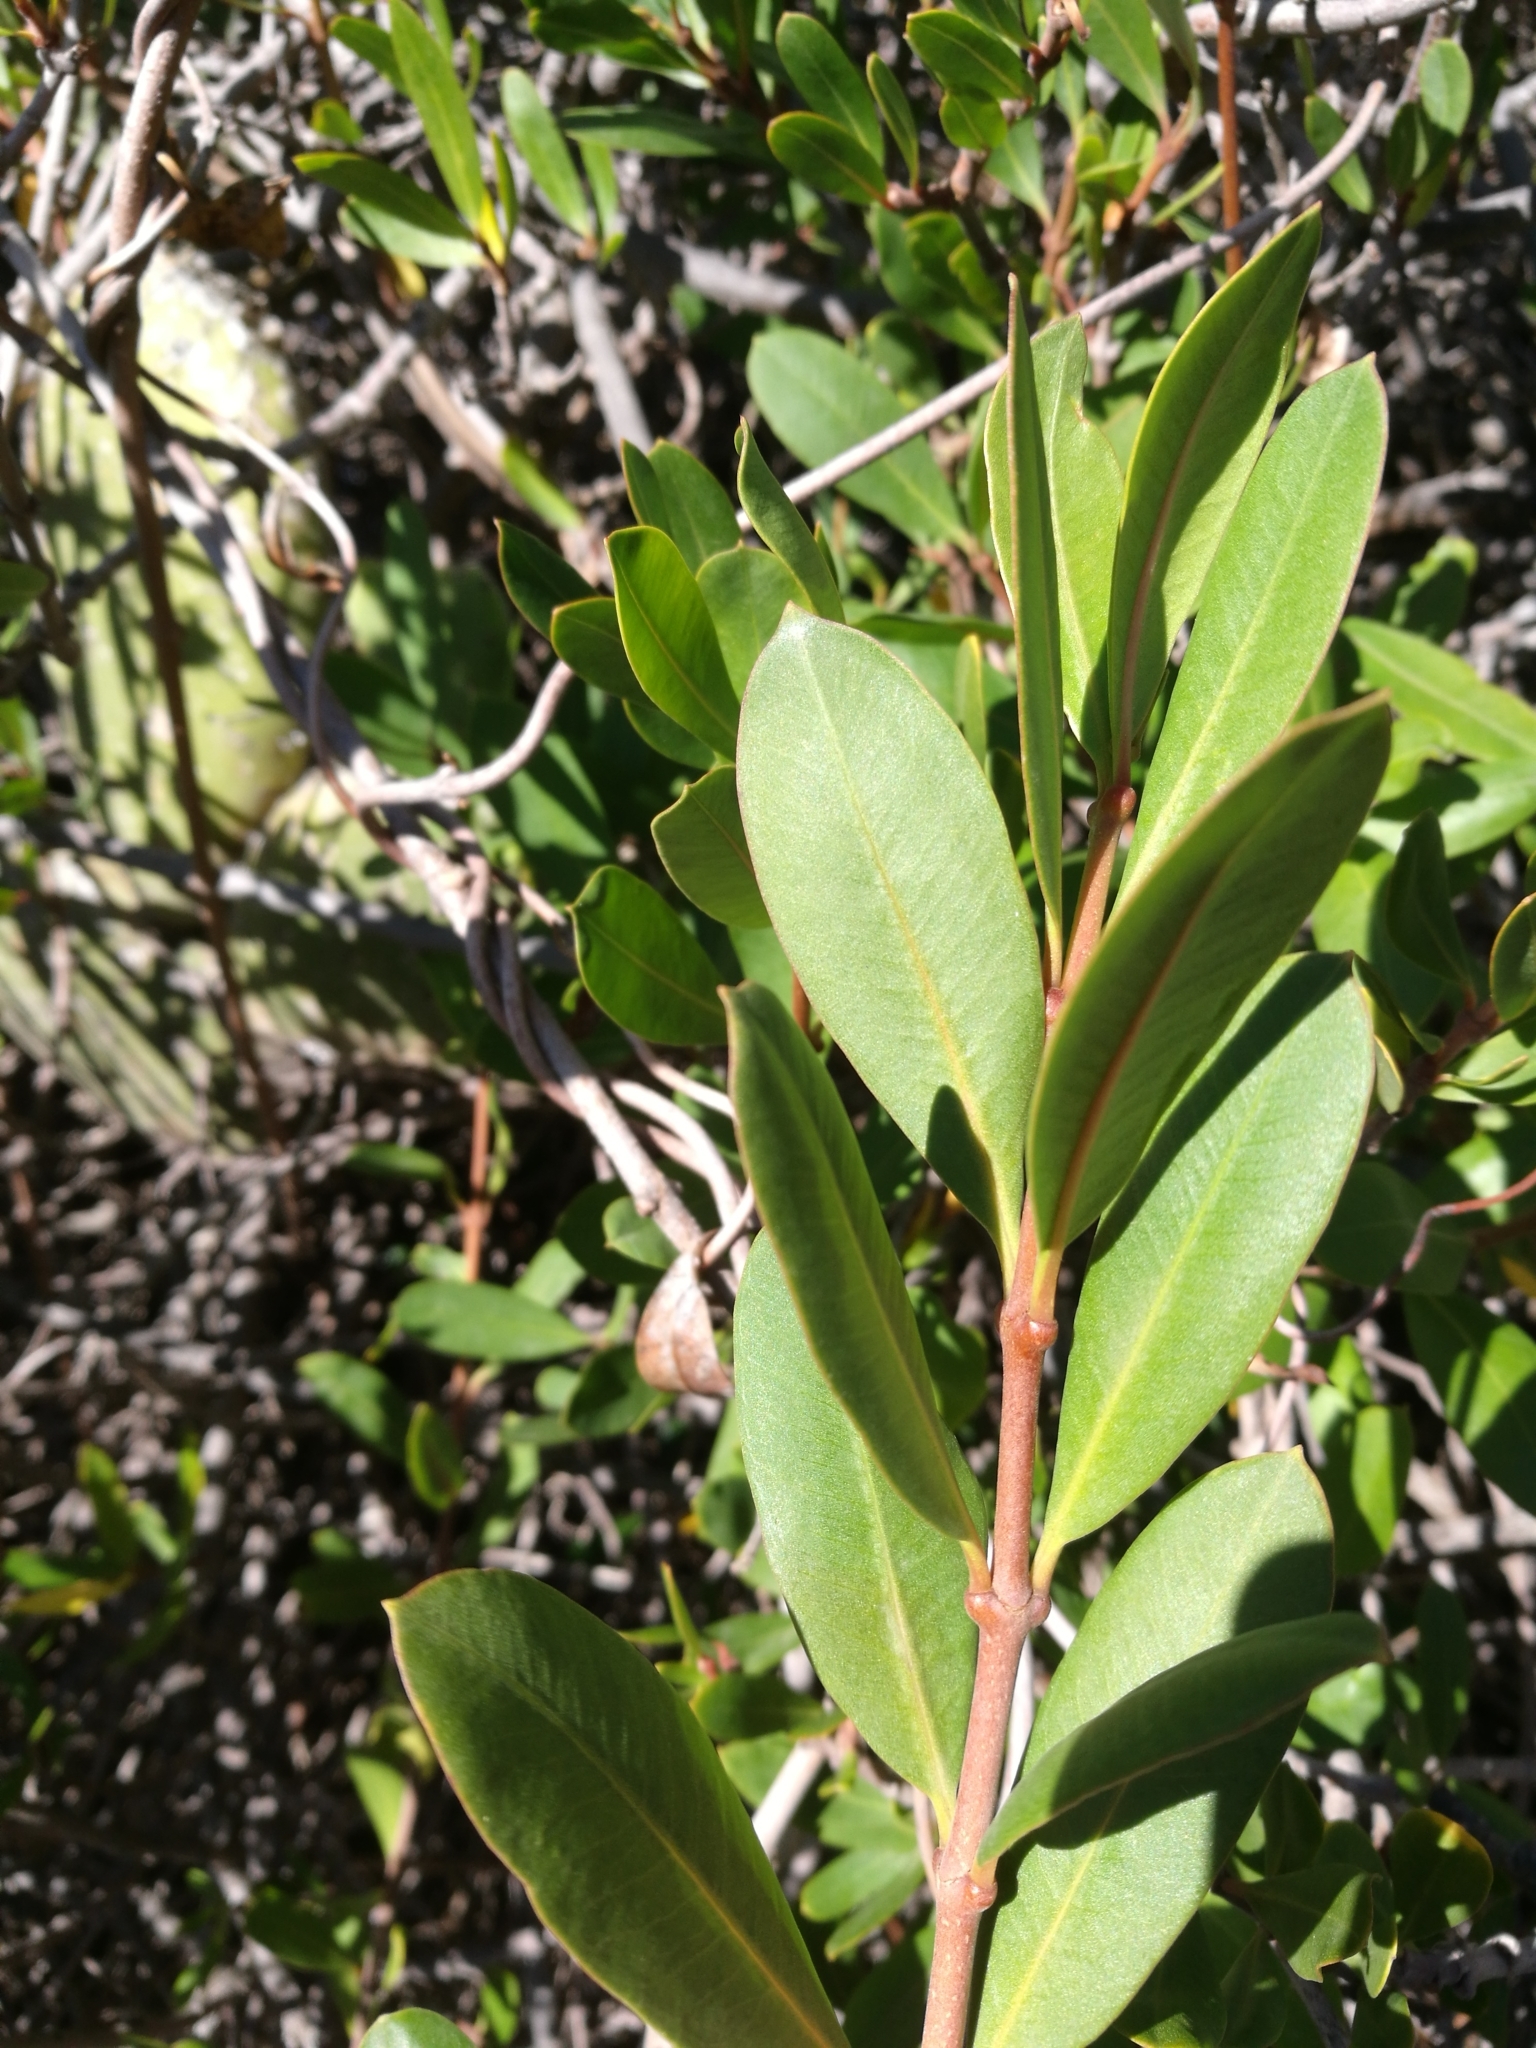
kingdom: Plantae
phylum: Tracheophyta
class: Magnoliopsida
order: Gentianales
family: Apocynaceae
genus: Periploca
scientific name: Periploca laevigata
